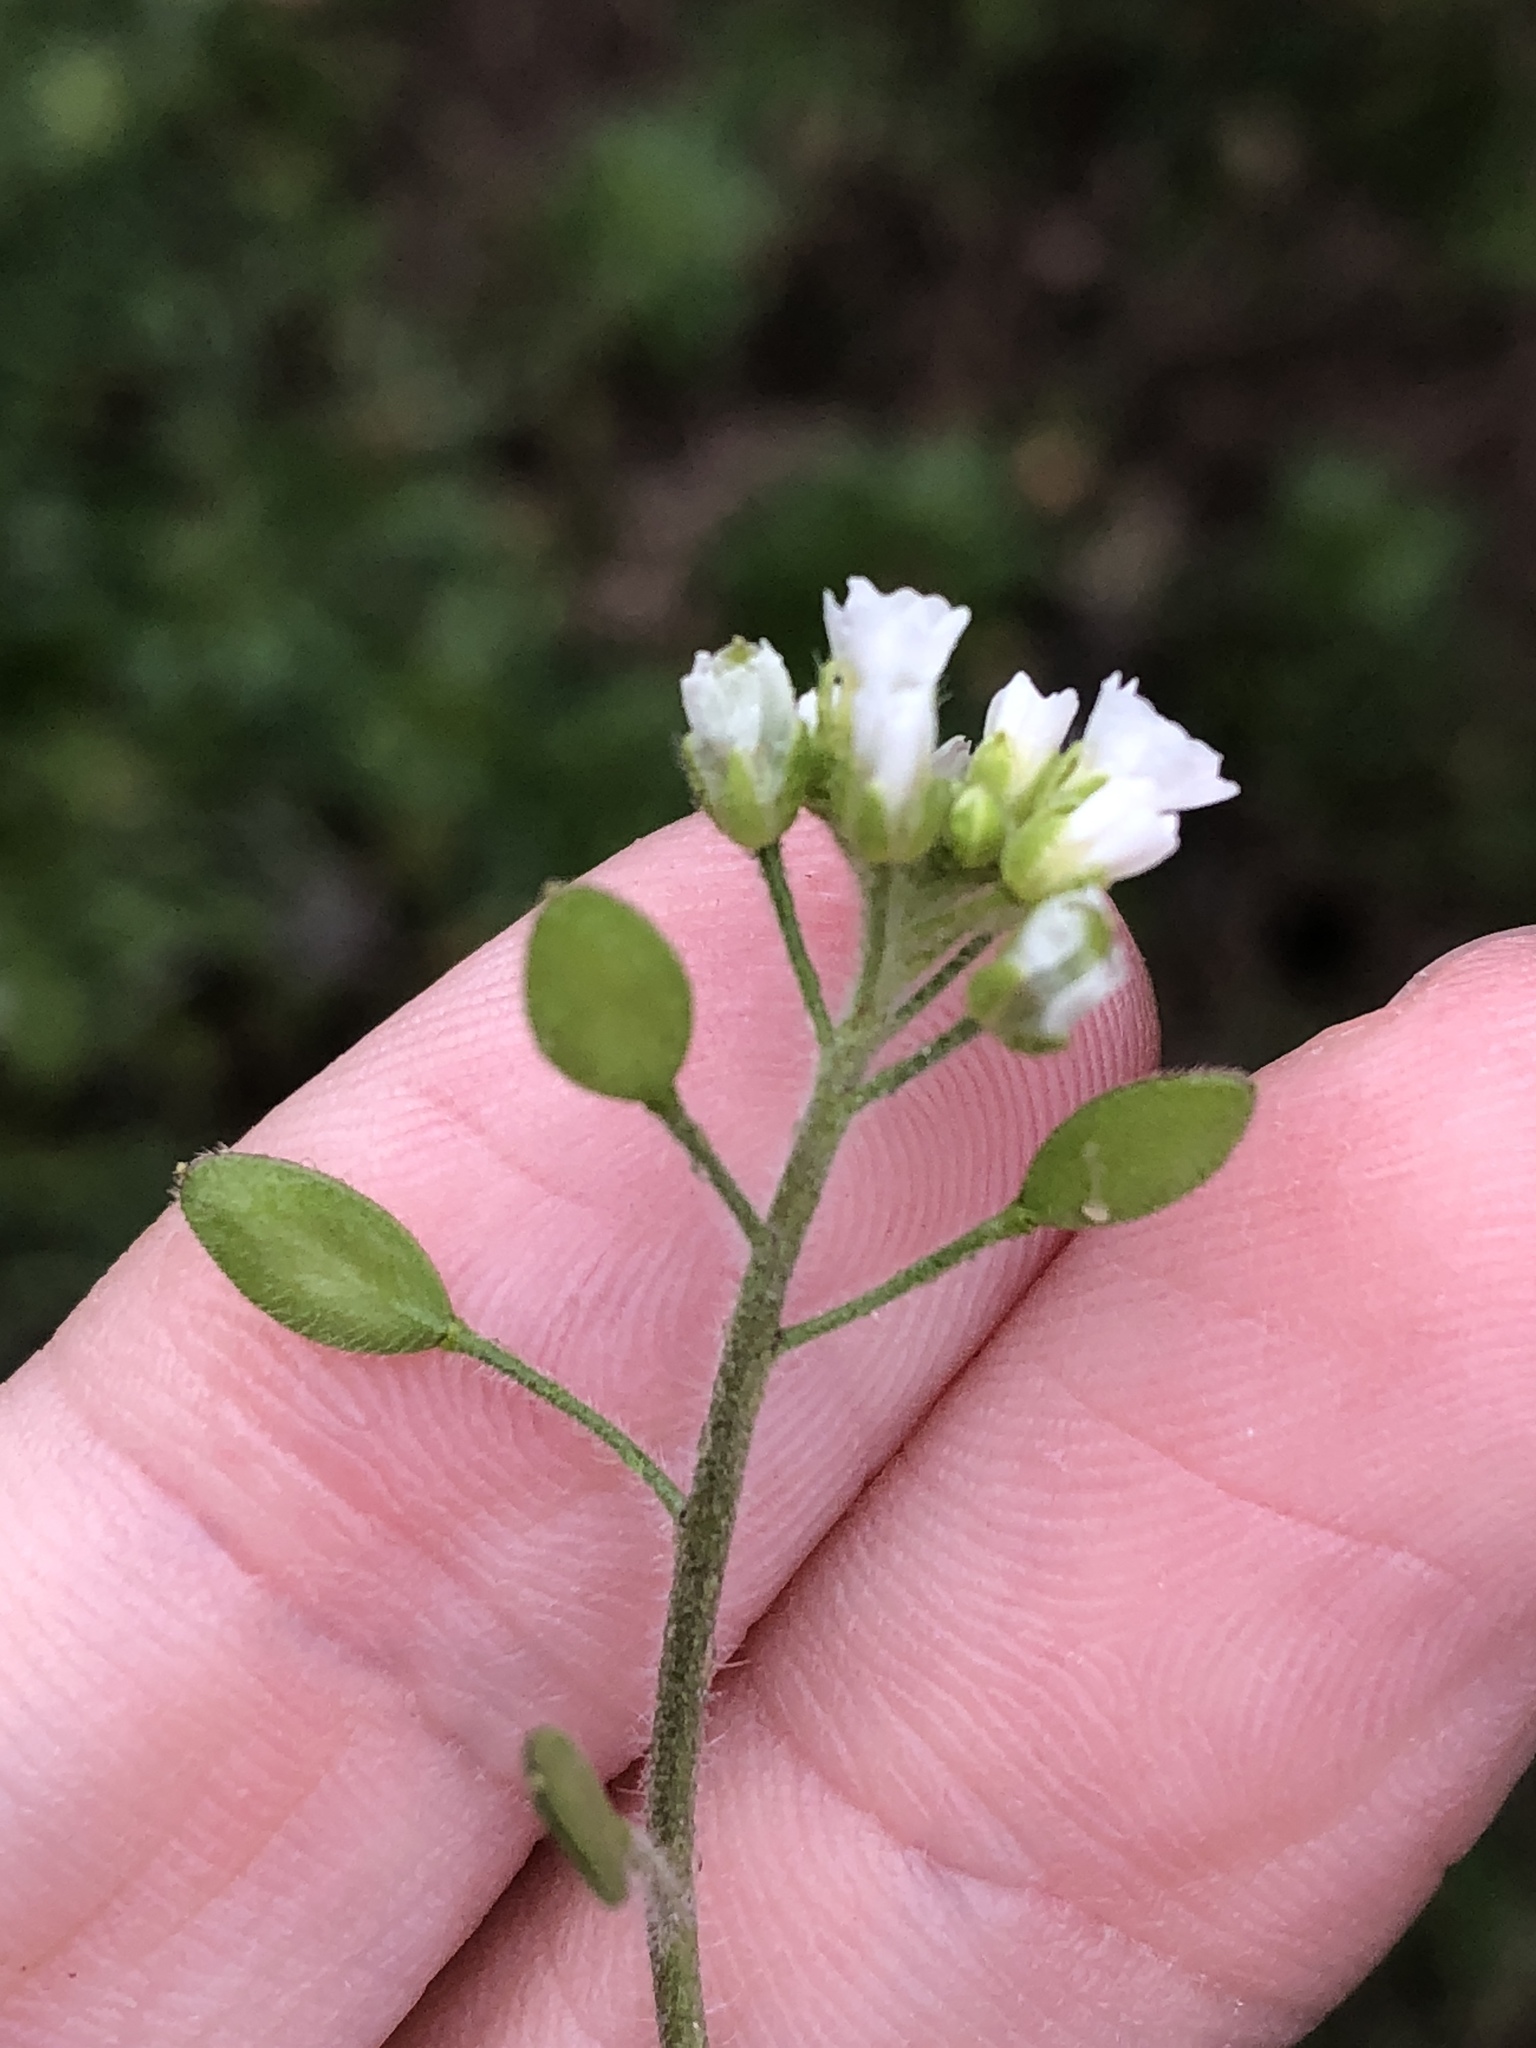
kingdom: Plantae
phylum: Tracheophyta
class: Magnoliopsida
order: Brassicales
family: Brassicaceae
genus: Tomostima
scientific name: Tomostima platycarpa
